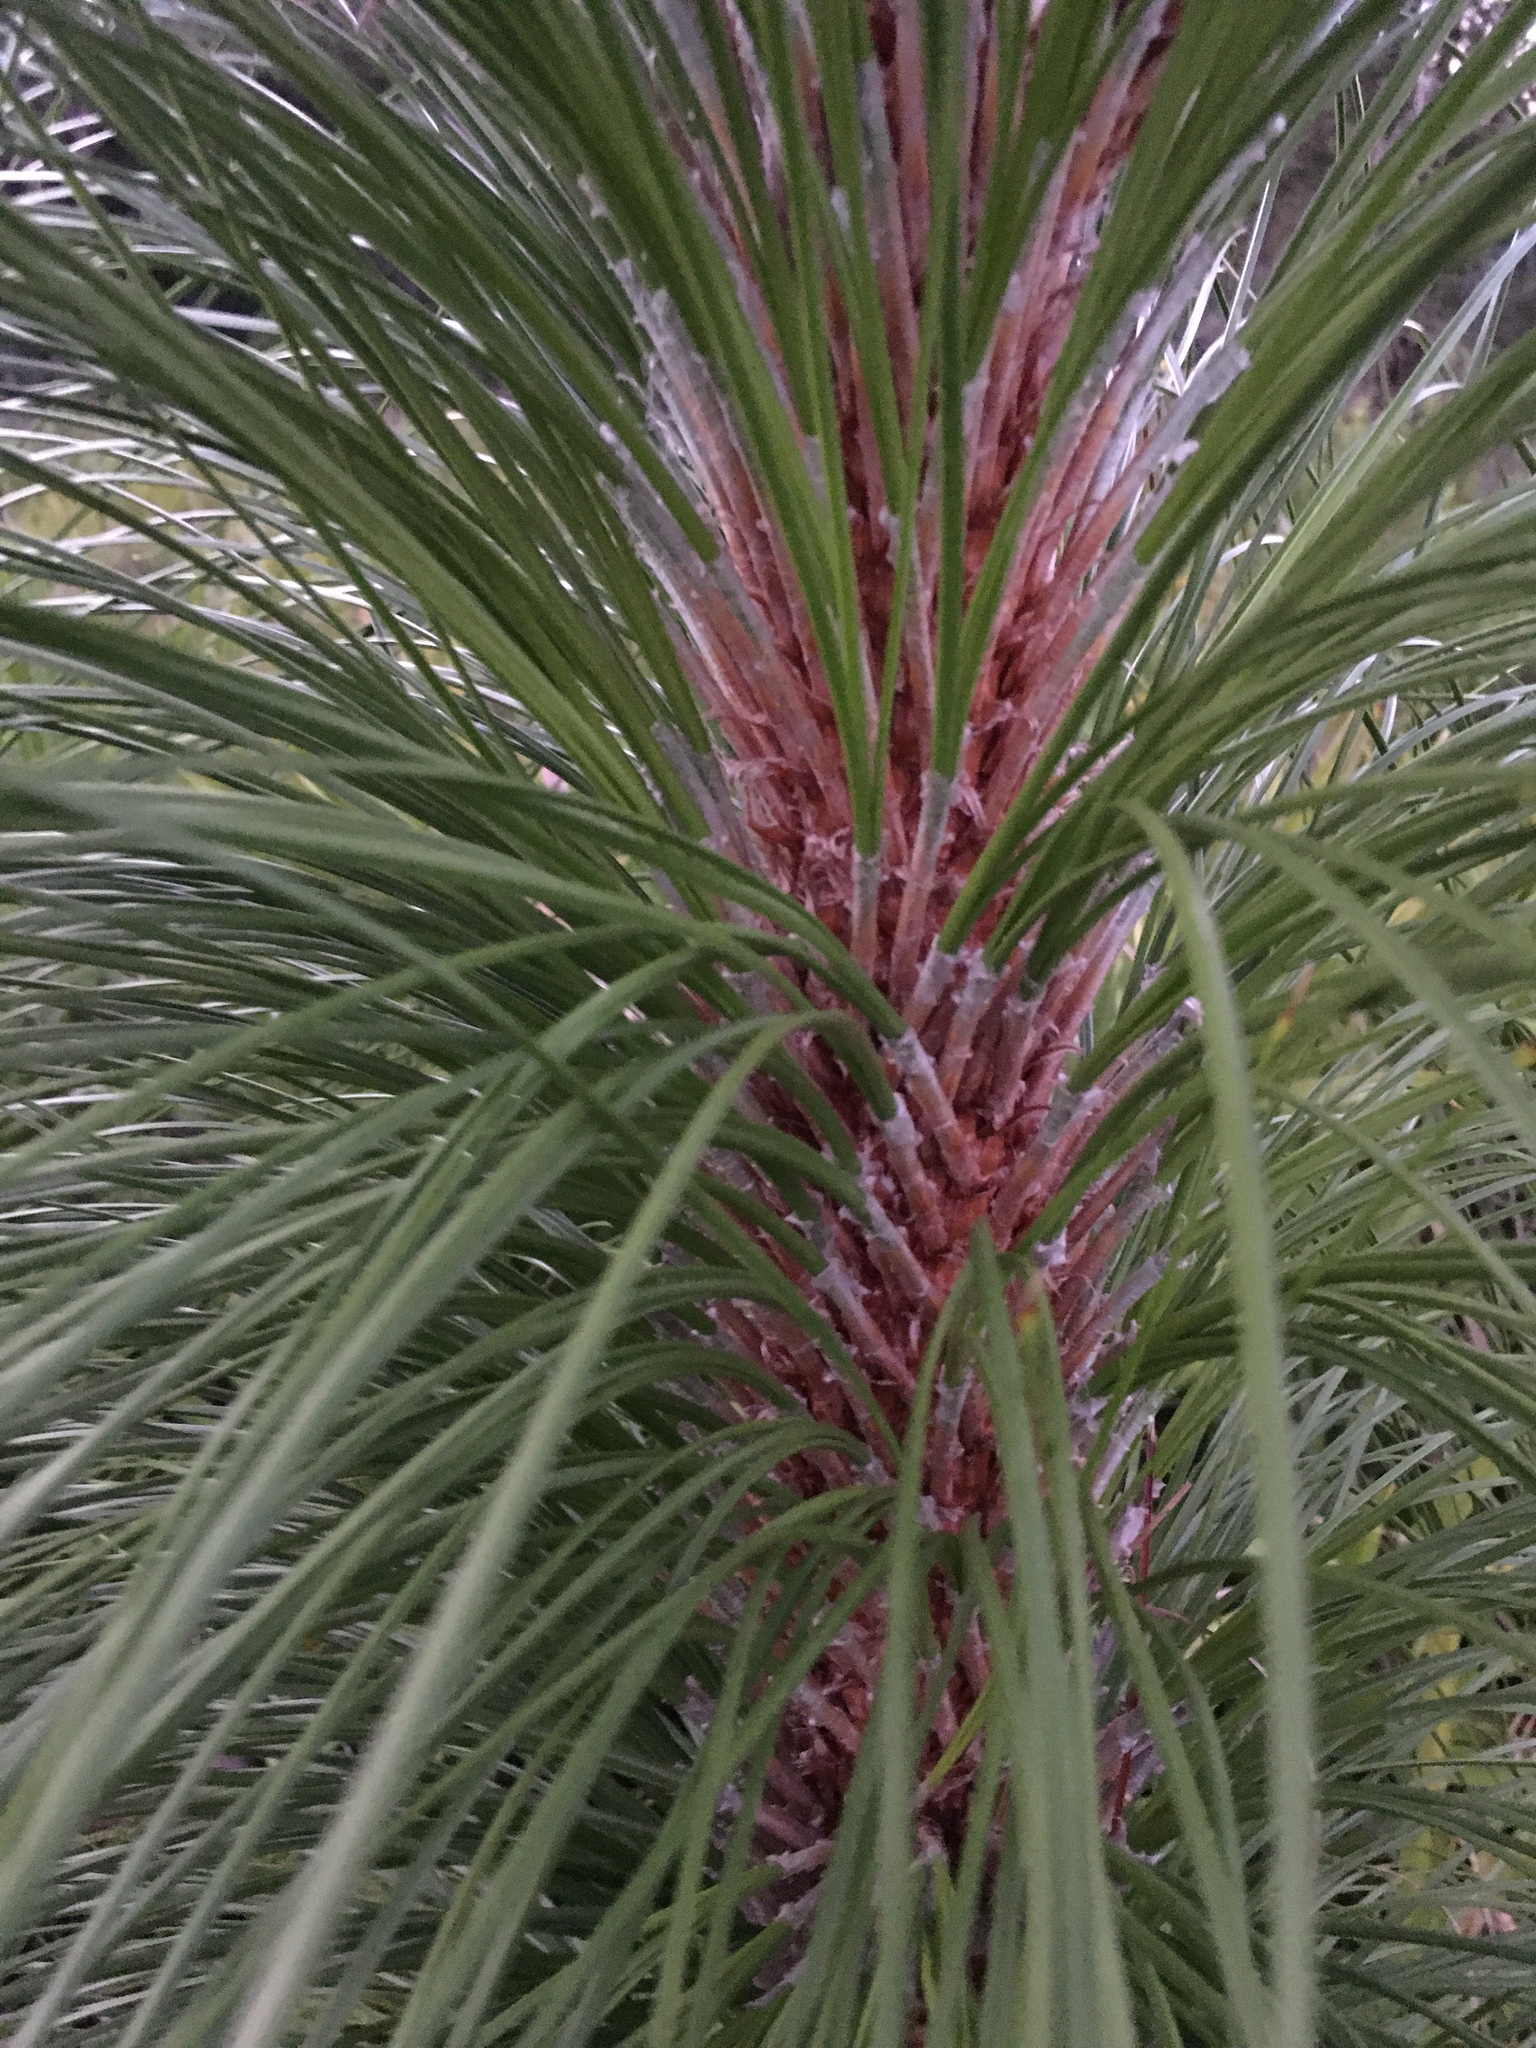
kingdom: Plantae
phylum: Tracheophyta
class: Pinopsida
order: Pinales
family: Pinaceae
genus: Pinus
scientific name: Pinus palustris
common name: Longleaf pine
